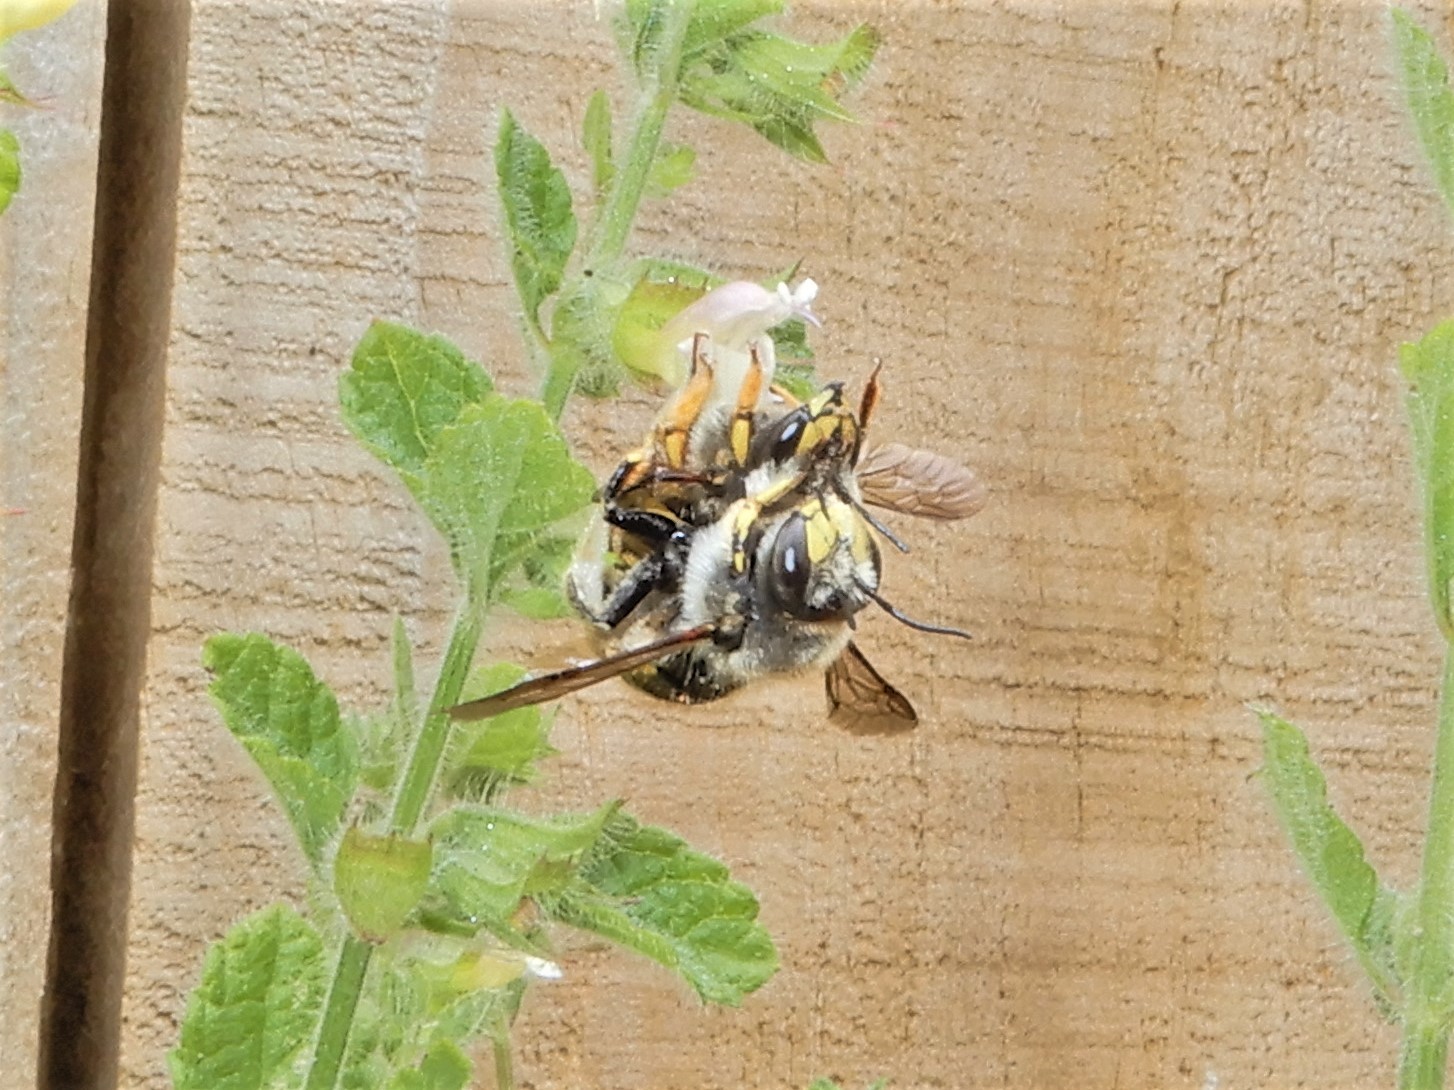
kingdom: Animalia
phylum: Arthropoda
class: Insecta
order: Hymenoptera
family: Megachilidae
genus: Anthidium
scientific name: Anthidium manicatum
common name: Wool carder bee
